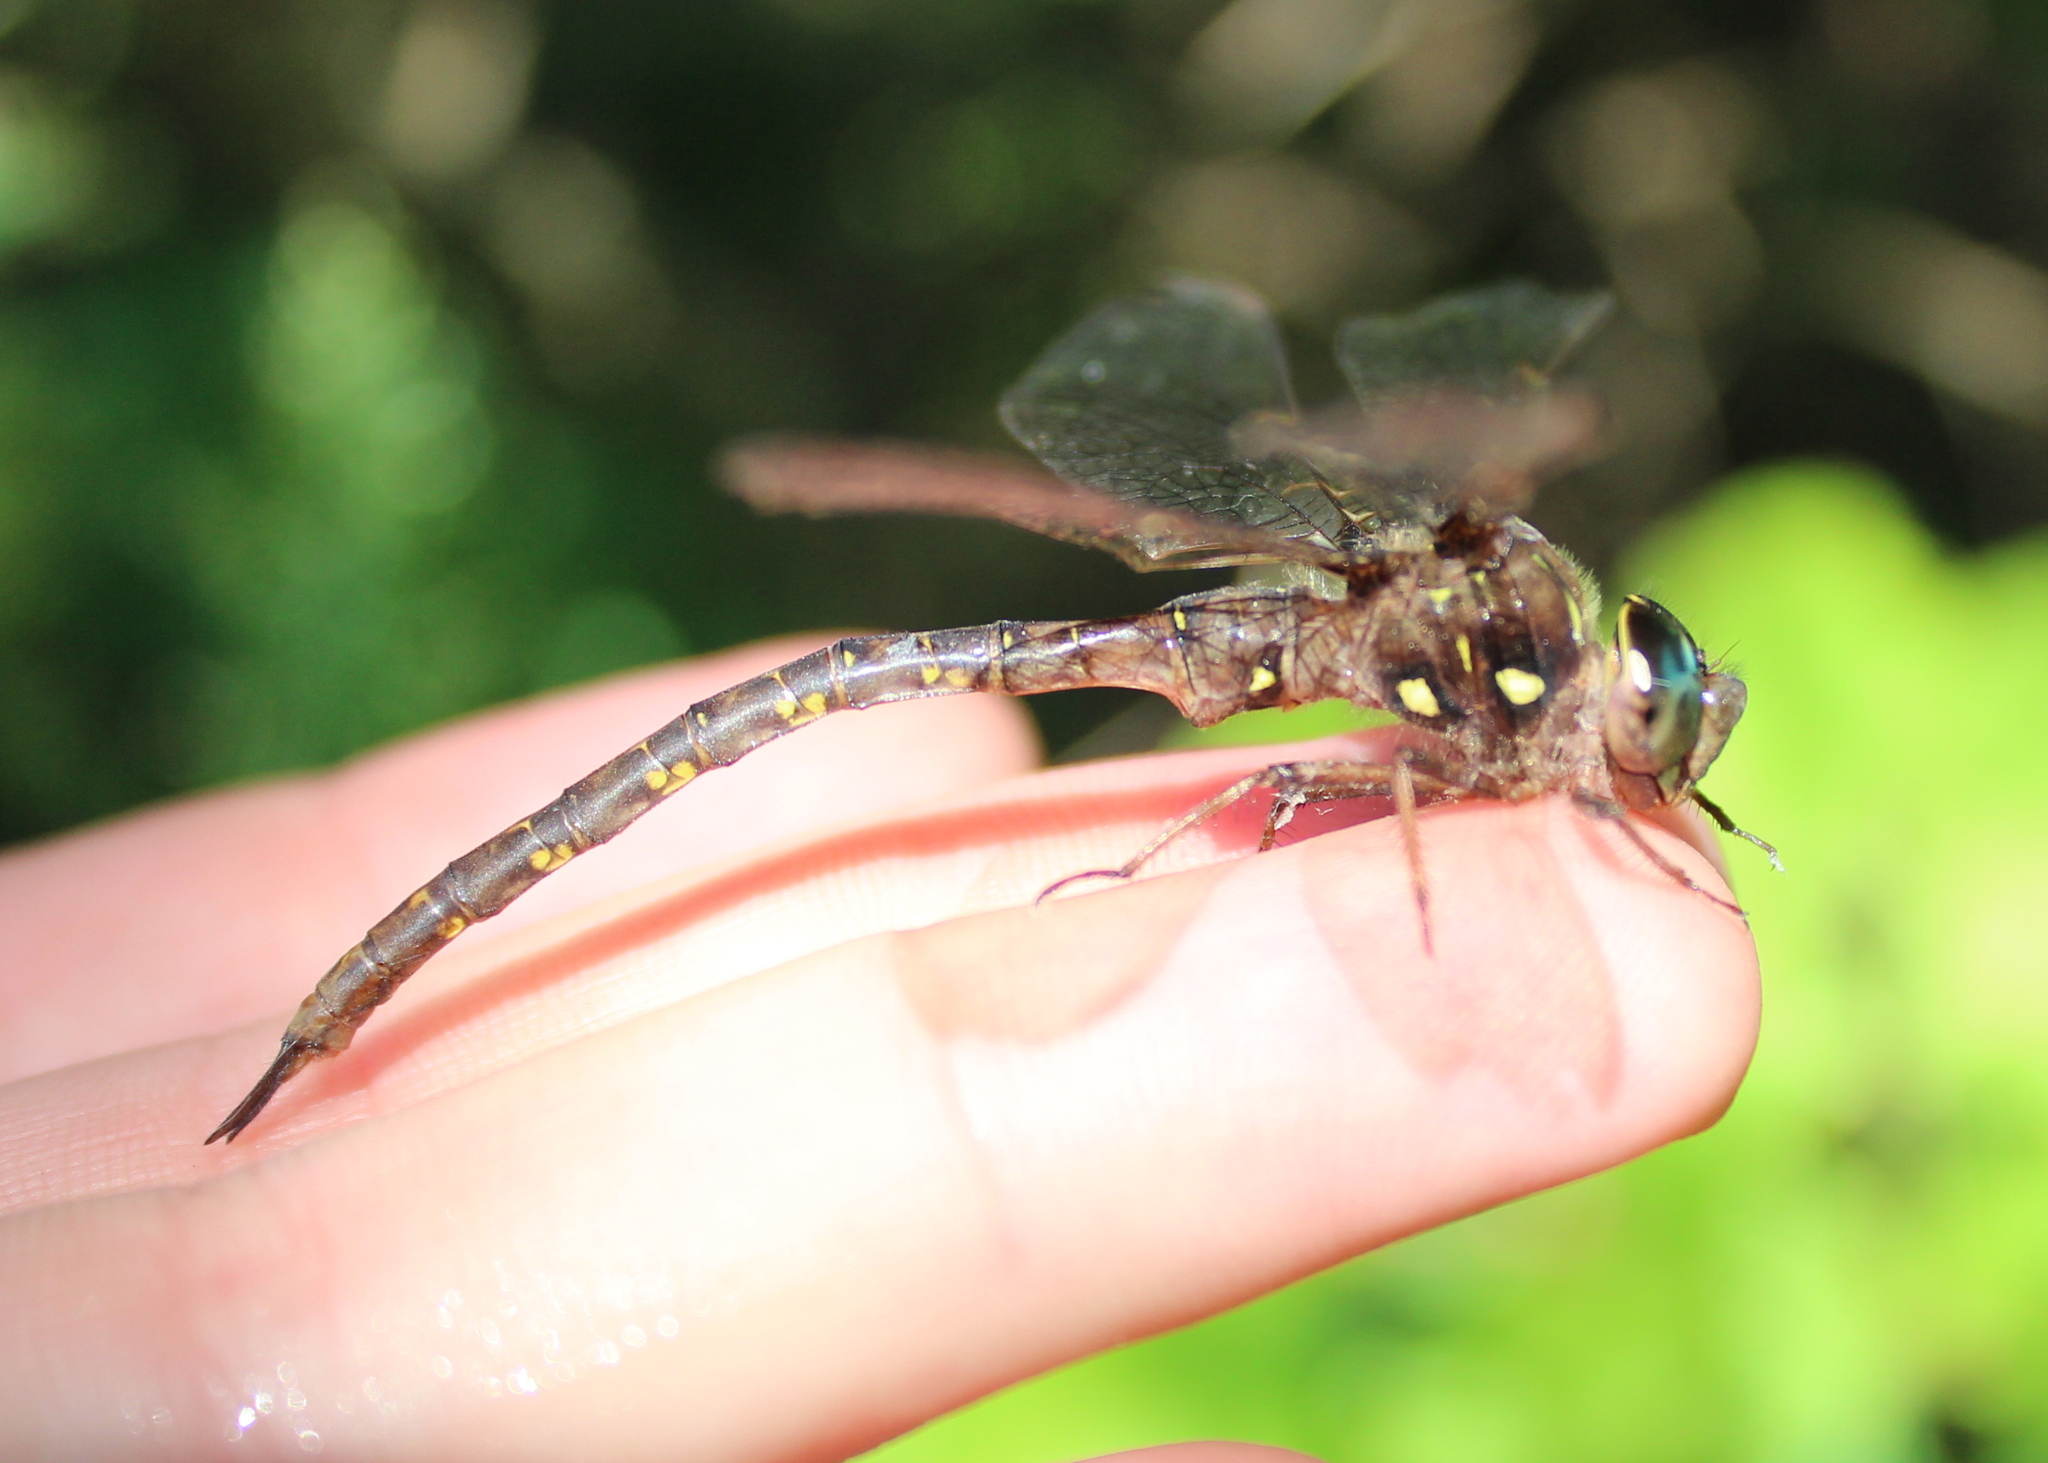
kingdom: Animalia
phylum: Arthropoda
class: Insecta
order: Odonata
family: Aeshnidae
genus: Boyeria
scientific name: Boyeria vinosa
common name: Fawn darner
